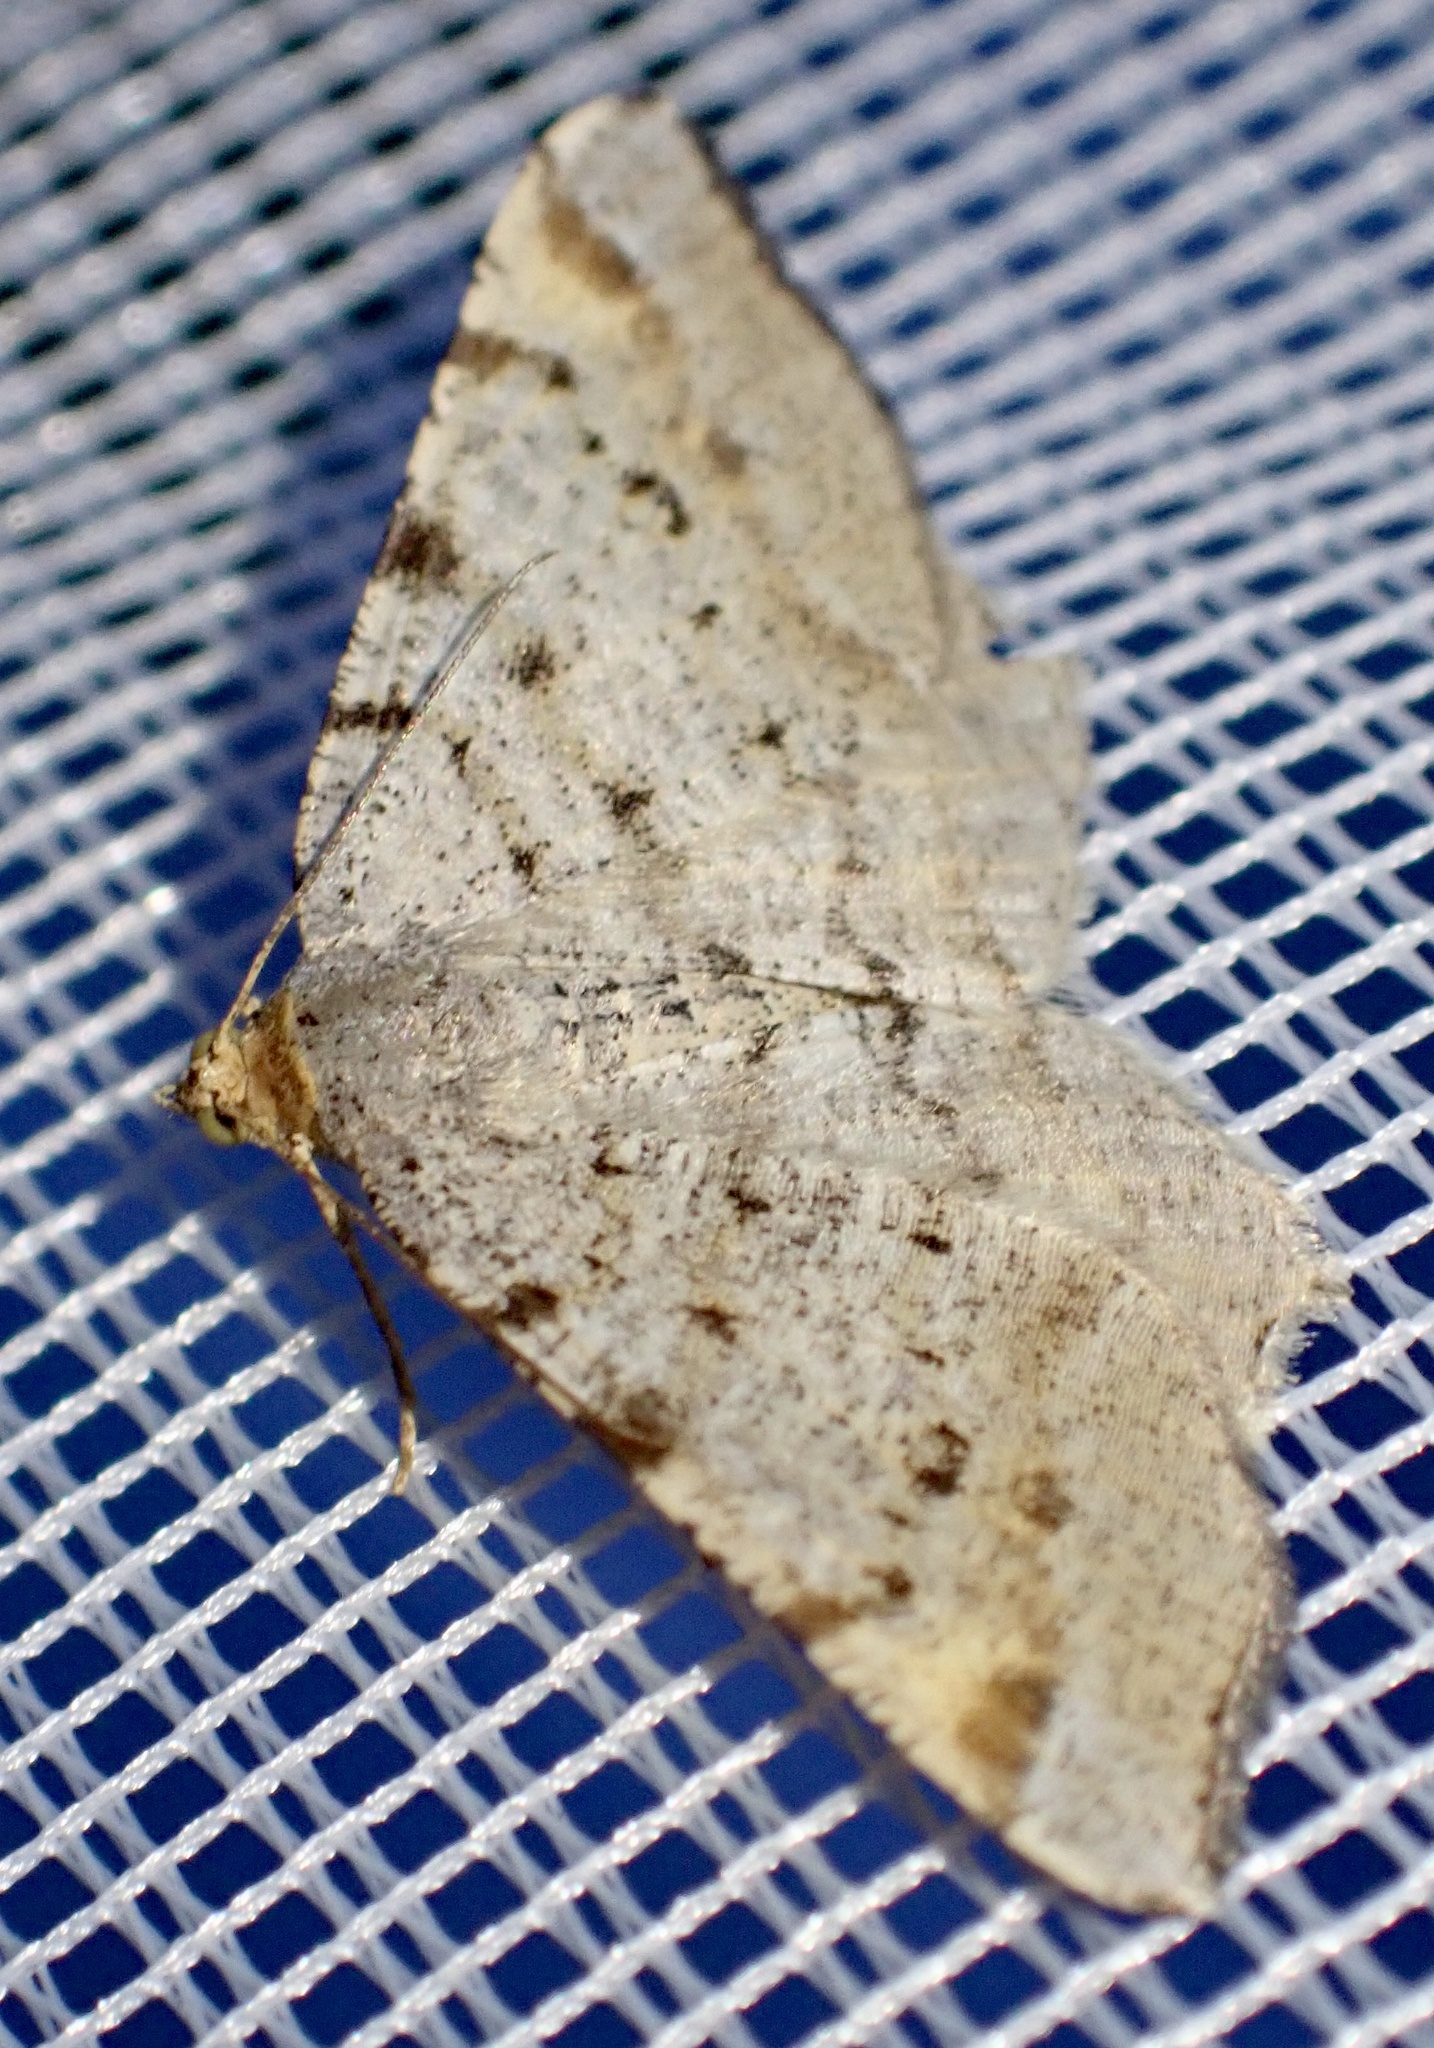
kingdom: Animalia
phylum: Arthropoda
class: Insecta
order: Lepidoptera
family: Geometridae
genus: Macaria
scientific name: Macaria liturata
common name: Tawny-barred angle
